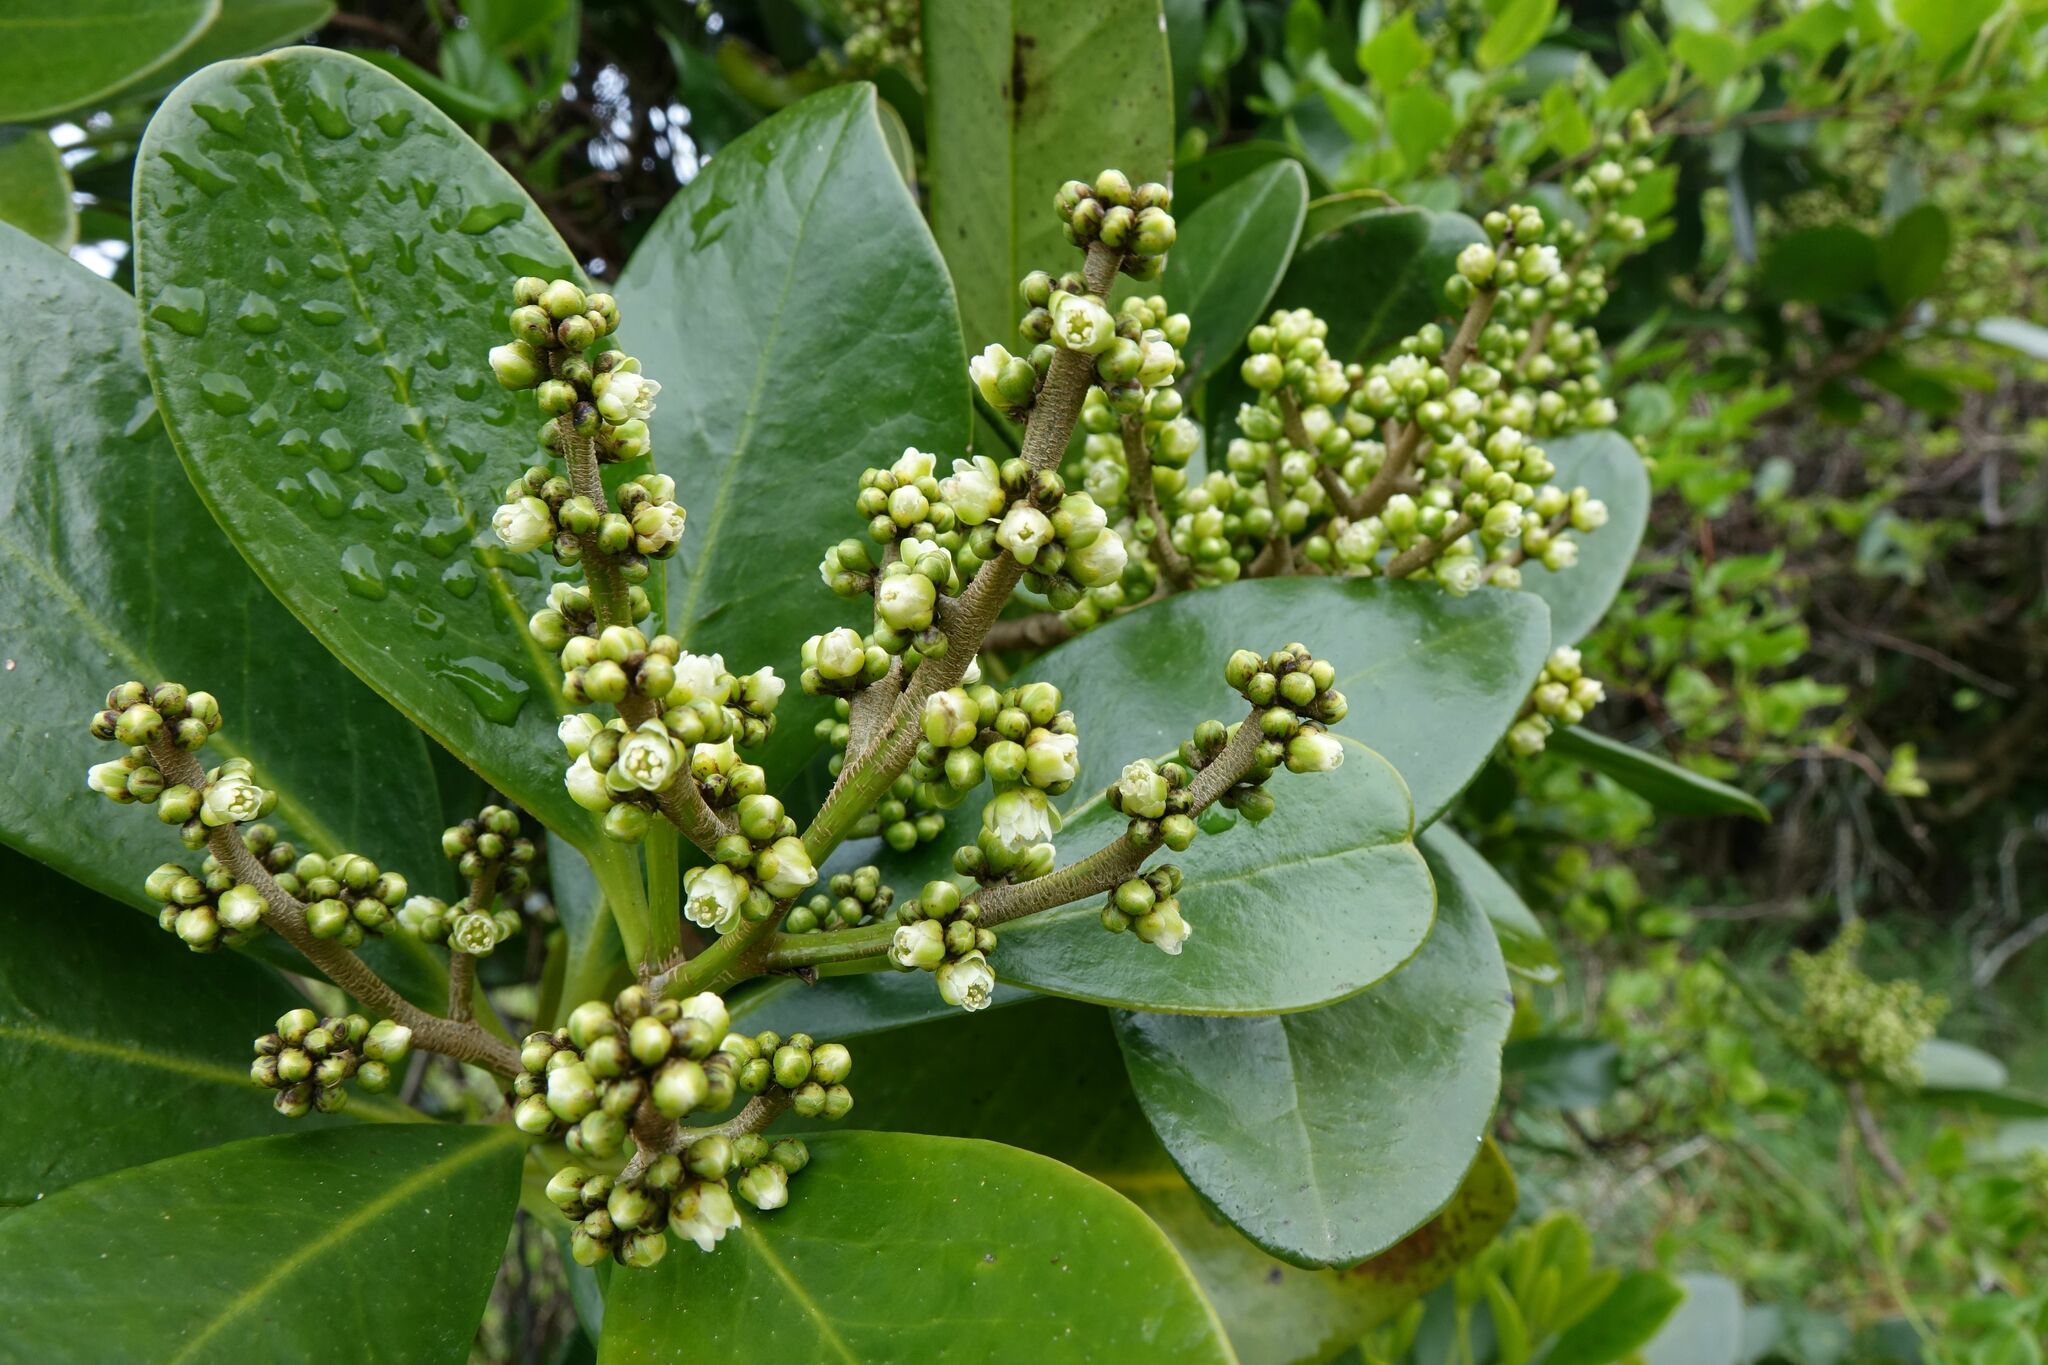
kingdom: Plantae
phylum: Tracheophyta
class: Magnoliopsida
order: Cucurbitales
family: Corynocarpaceae
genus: Corynocarpus
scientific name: Corynocarpus laevigatus
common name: New zealand laurel
